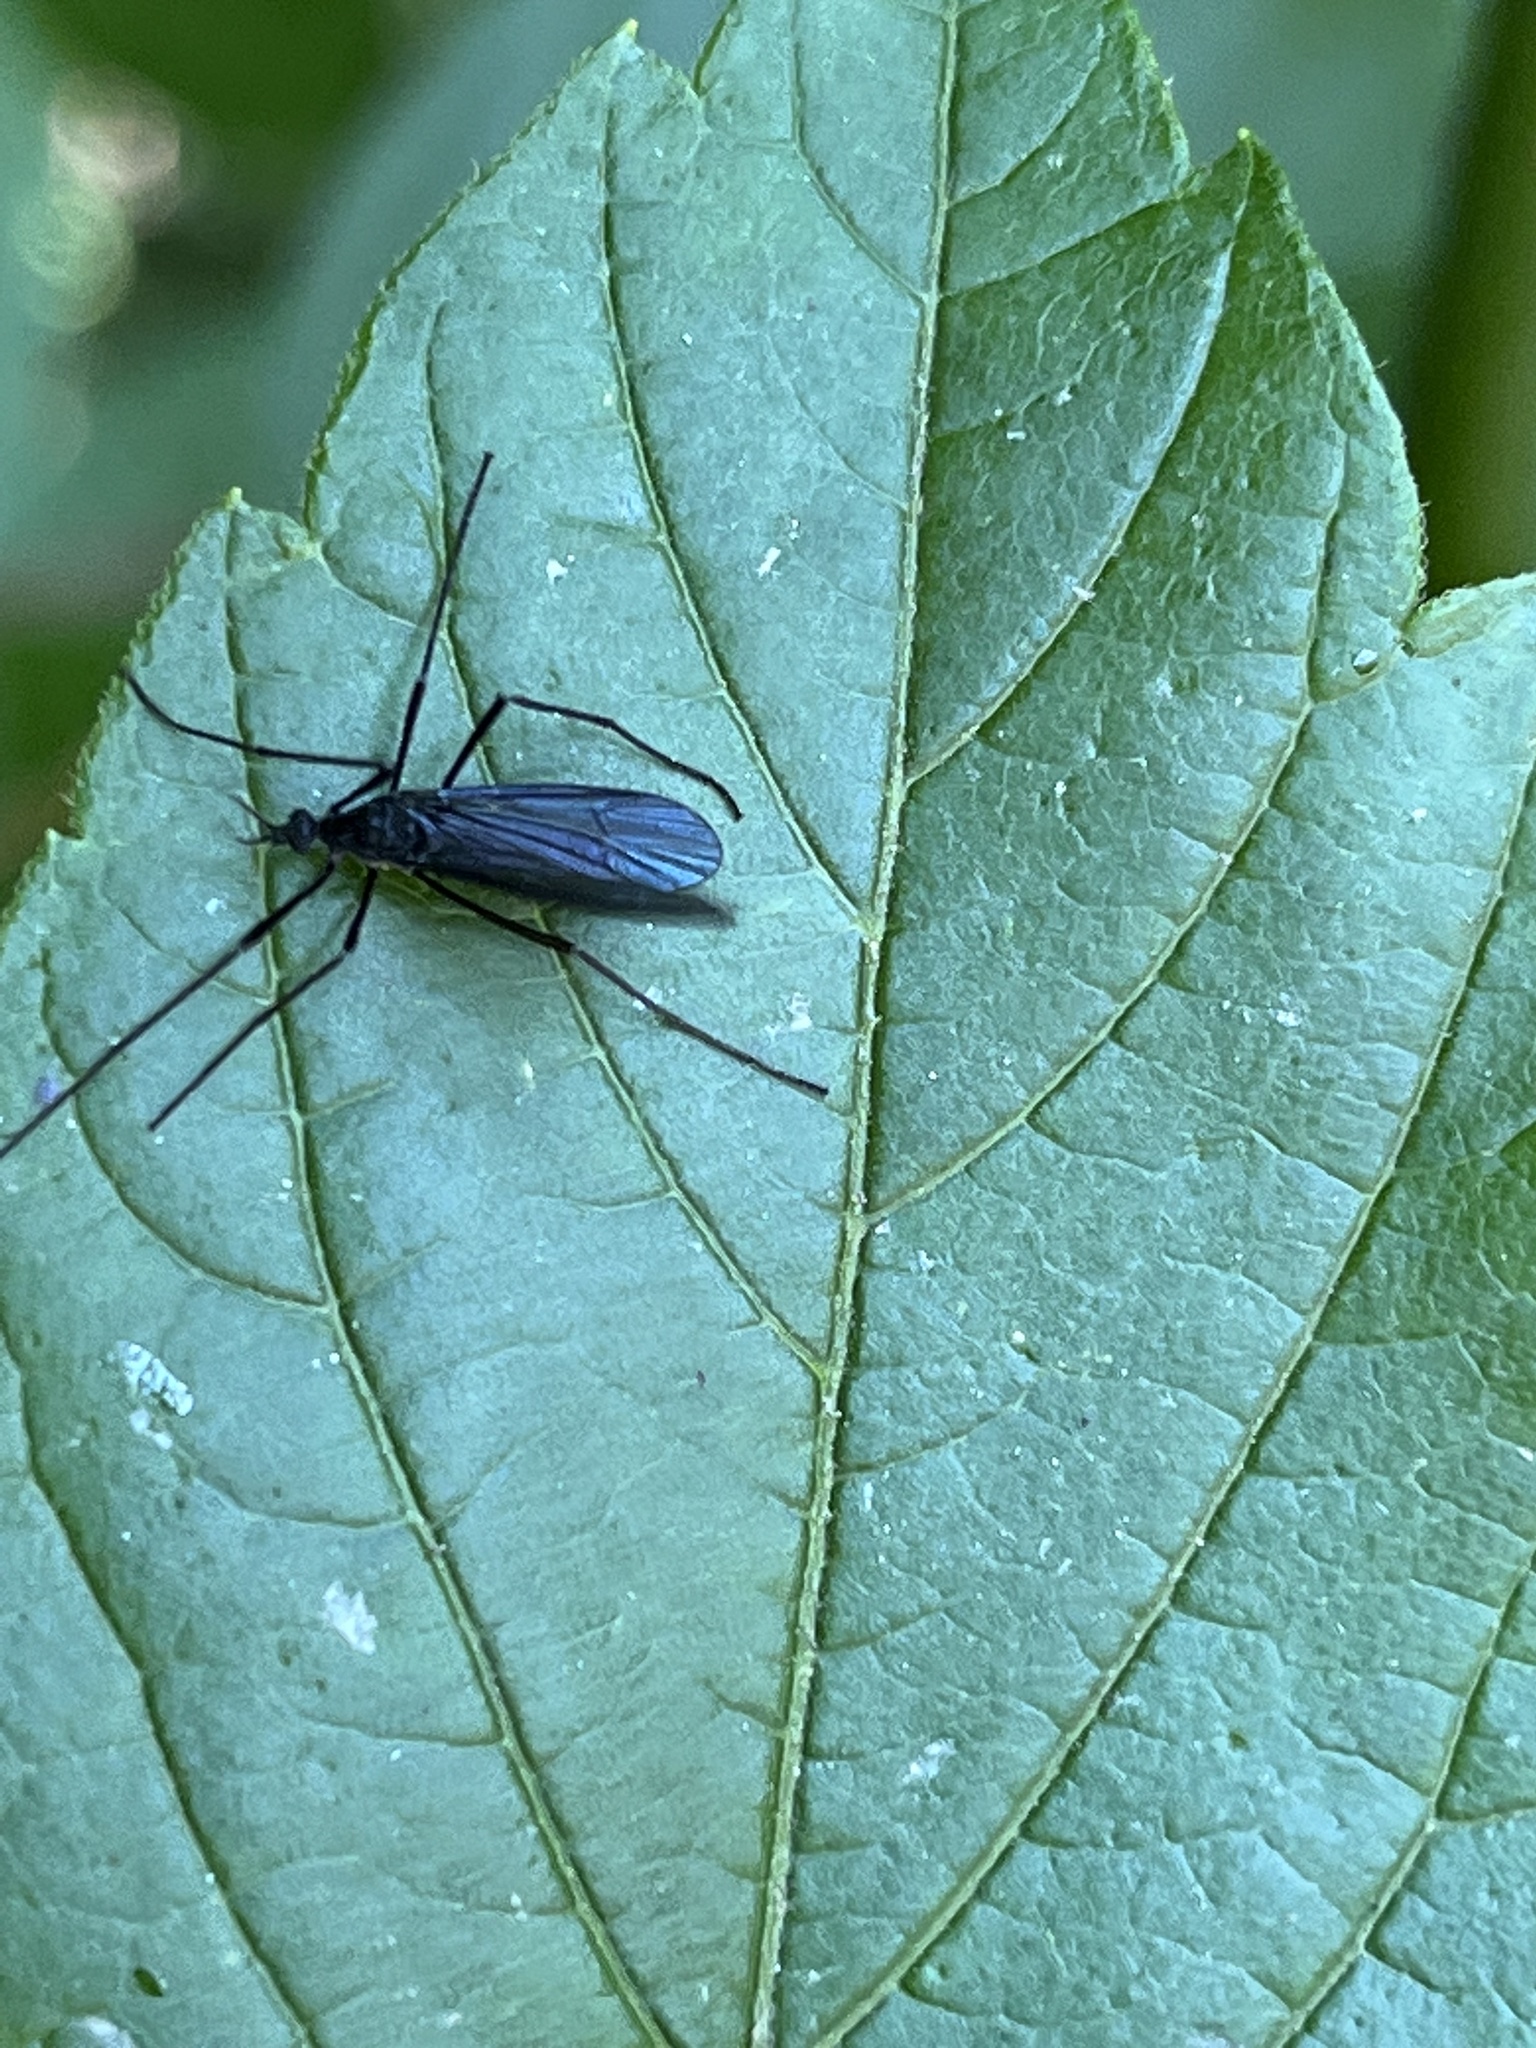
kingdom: Animalia
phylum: Arthropoda
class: Insecta
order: Diptera
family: Limoniidae
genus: Eugnophomyia
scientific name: Eugnophomyia luctuosa
